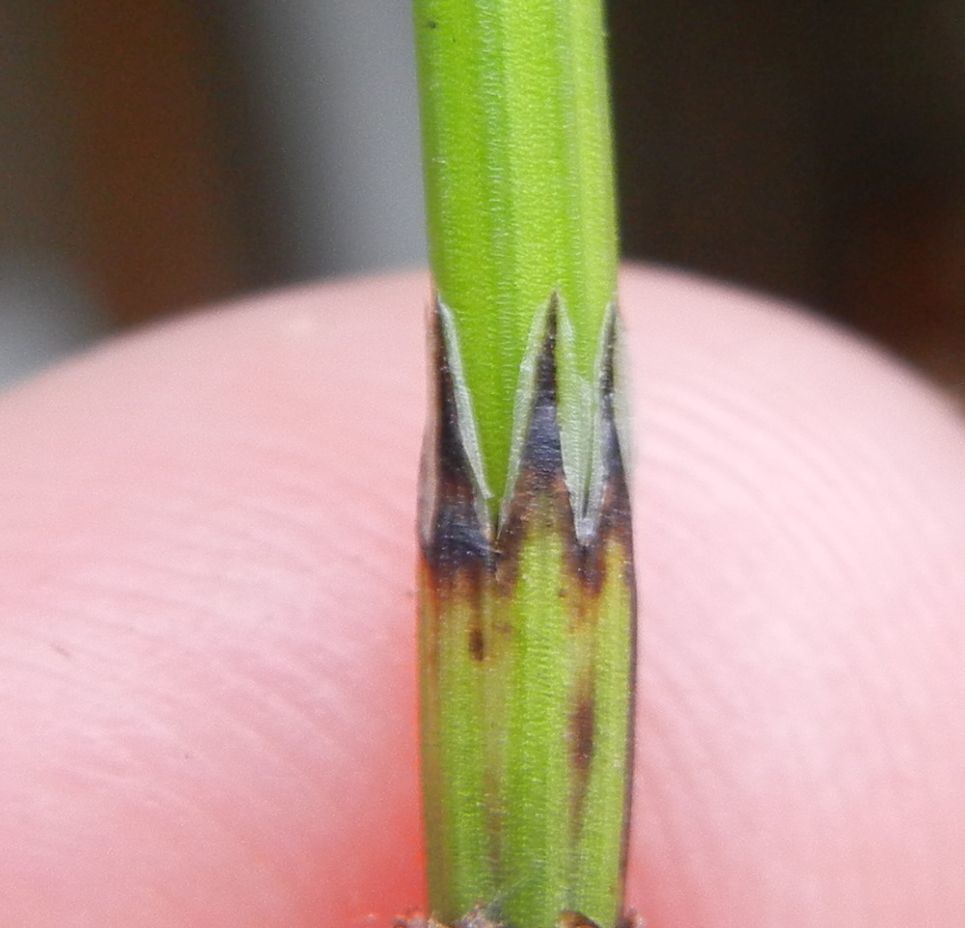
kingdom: Plantae
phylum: Tracheophyta
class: Polypodiopsida
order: Equisetales
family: Equisetaceae
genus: Equisetum
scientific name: Equisetum palustre
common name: Marsh horsetail
